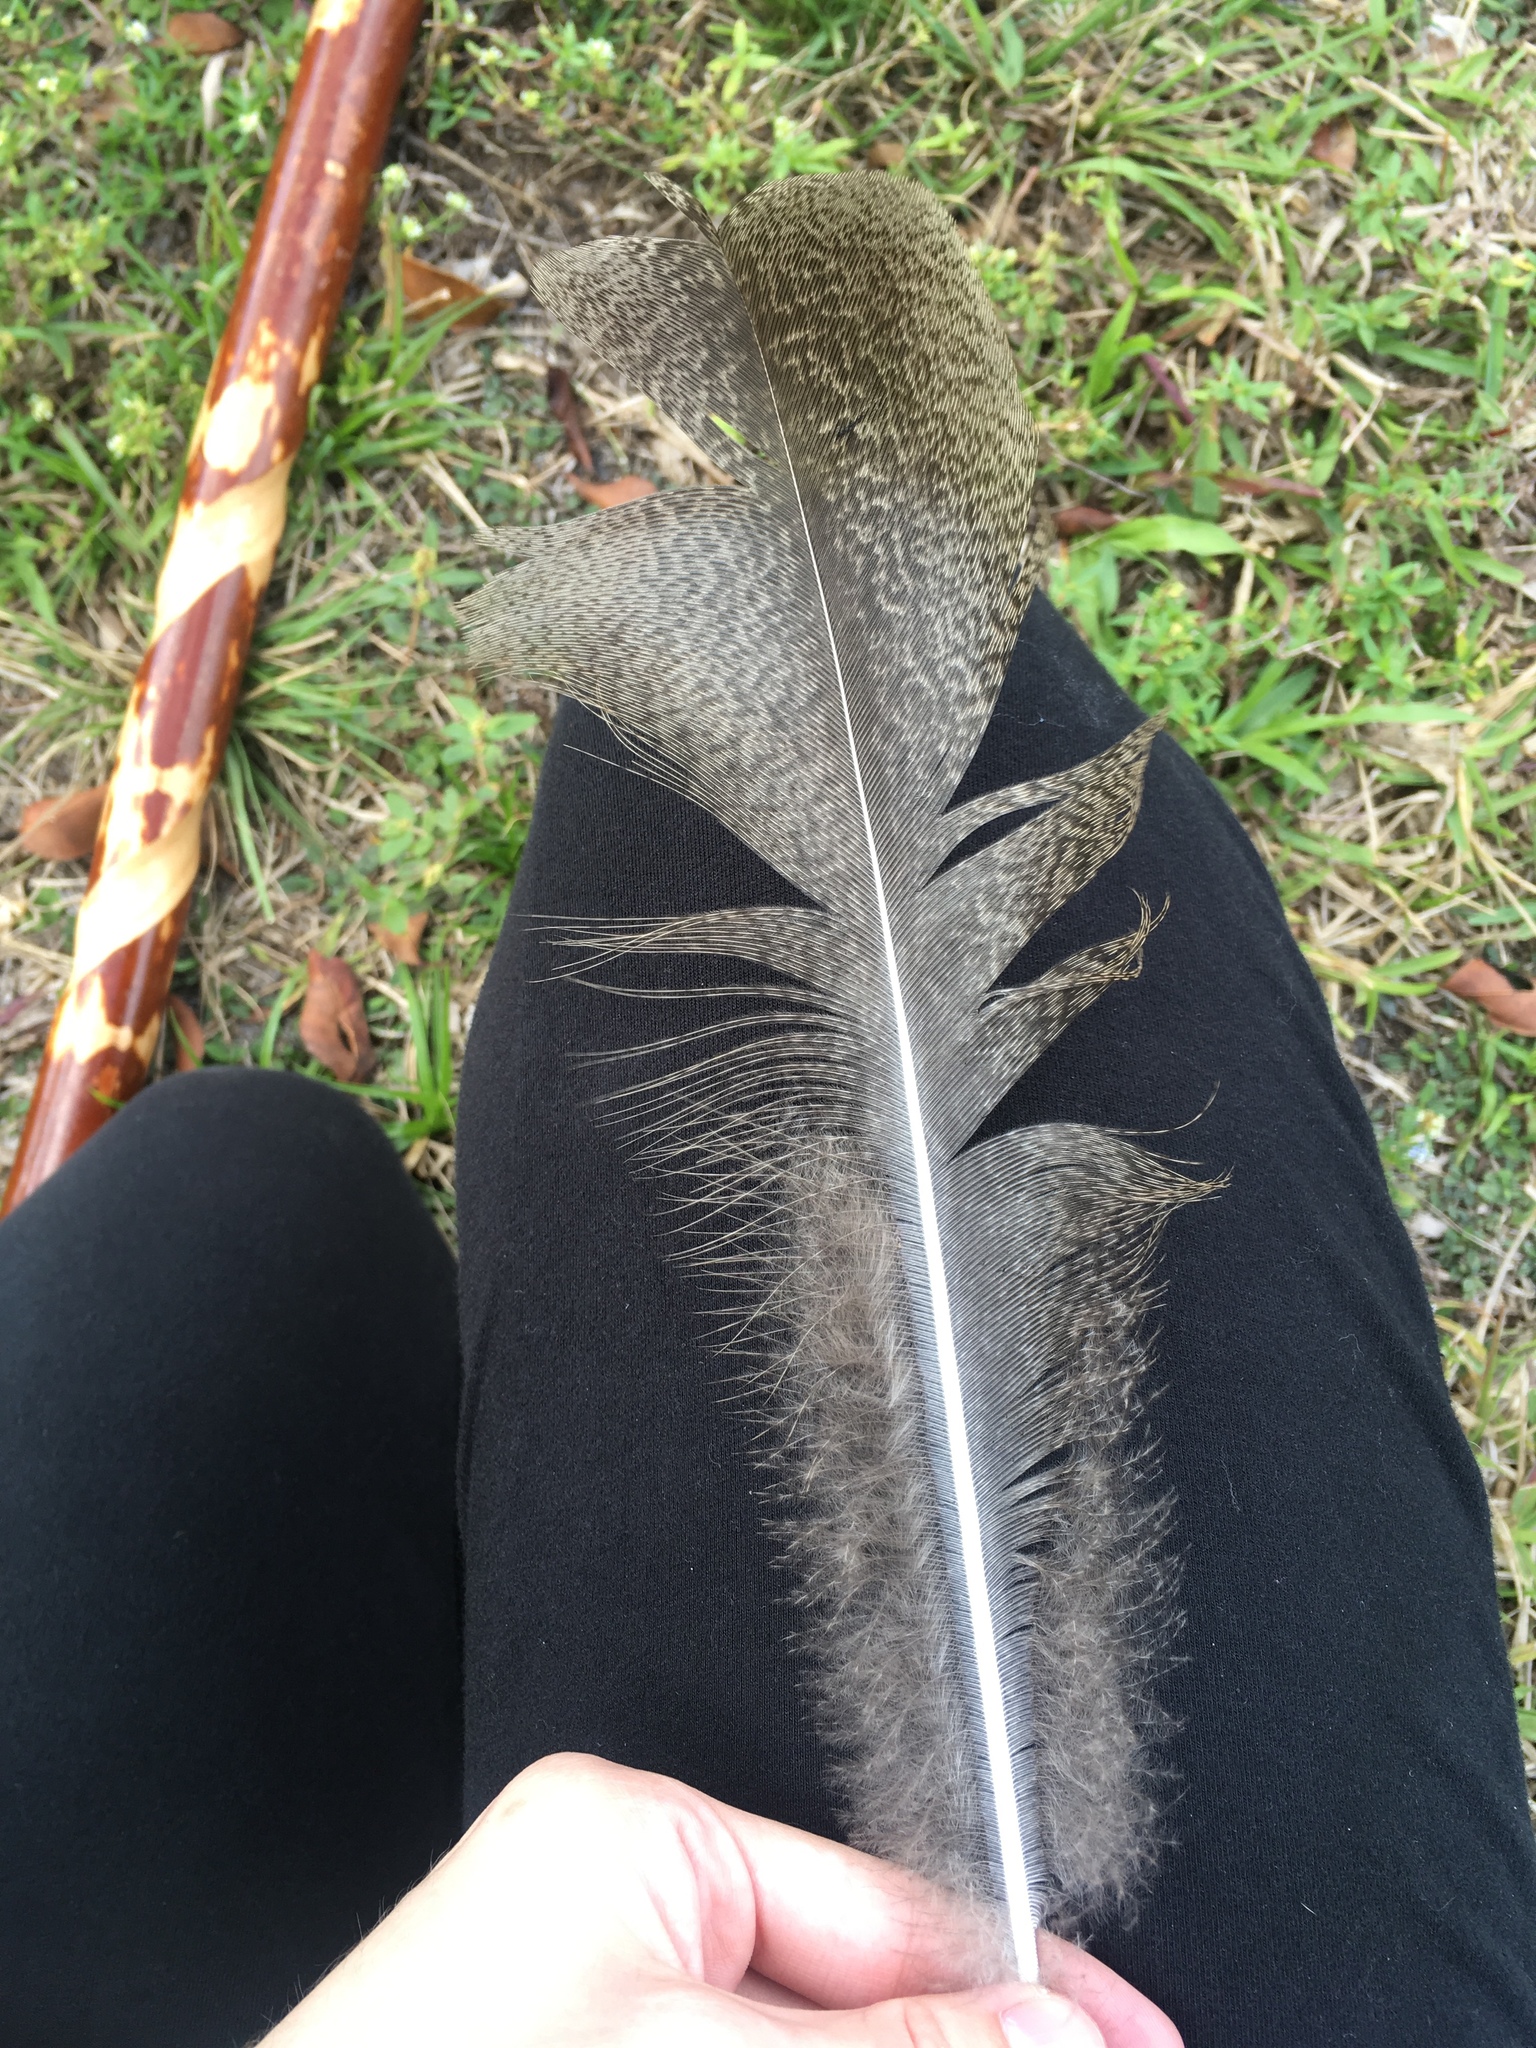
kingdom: Animalia
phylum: Chordata
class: Aves
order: Galliformes
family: Phasianidae
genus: Pavo
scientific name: Pavo cristatus
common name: Indian peafowl
